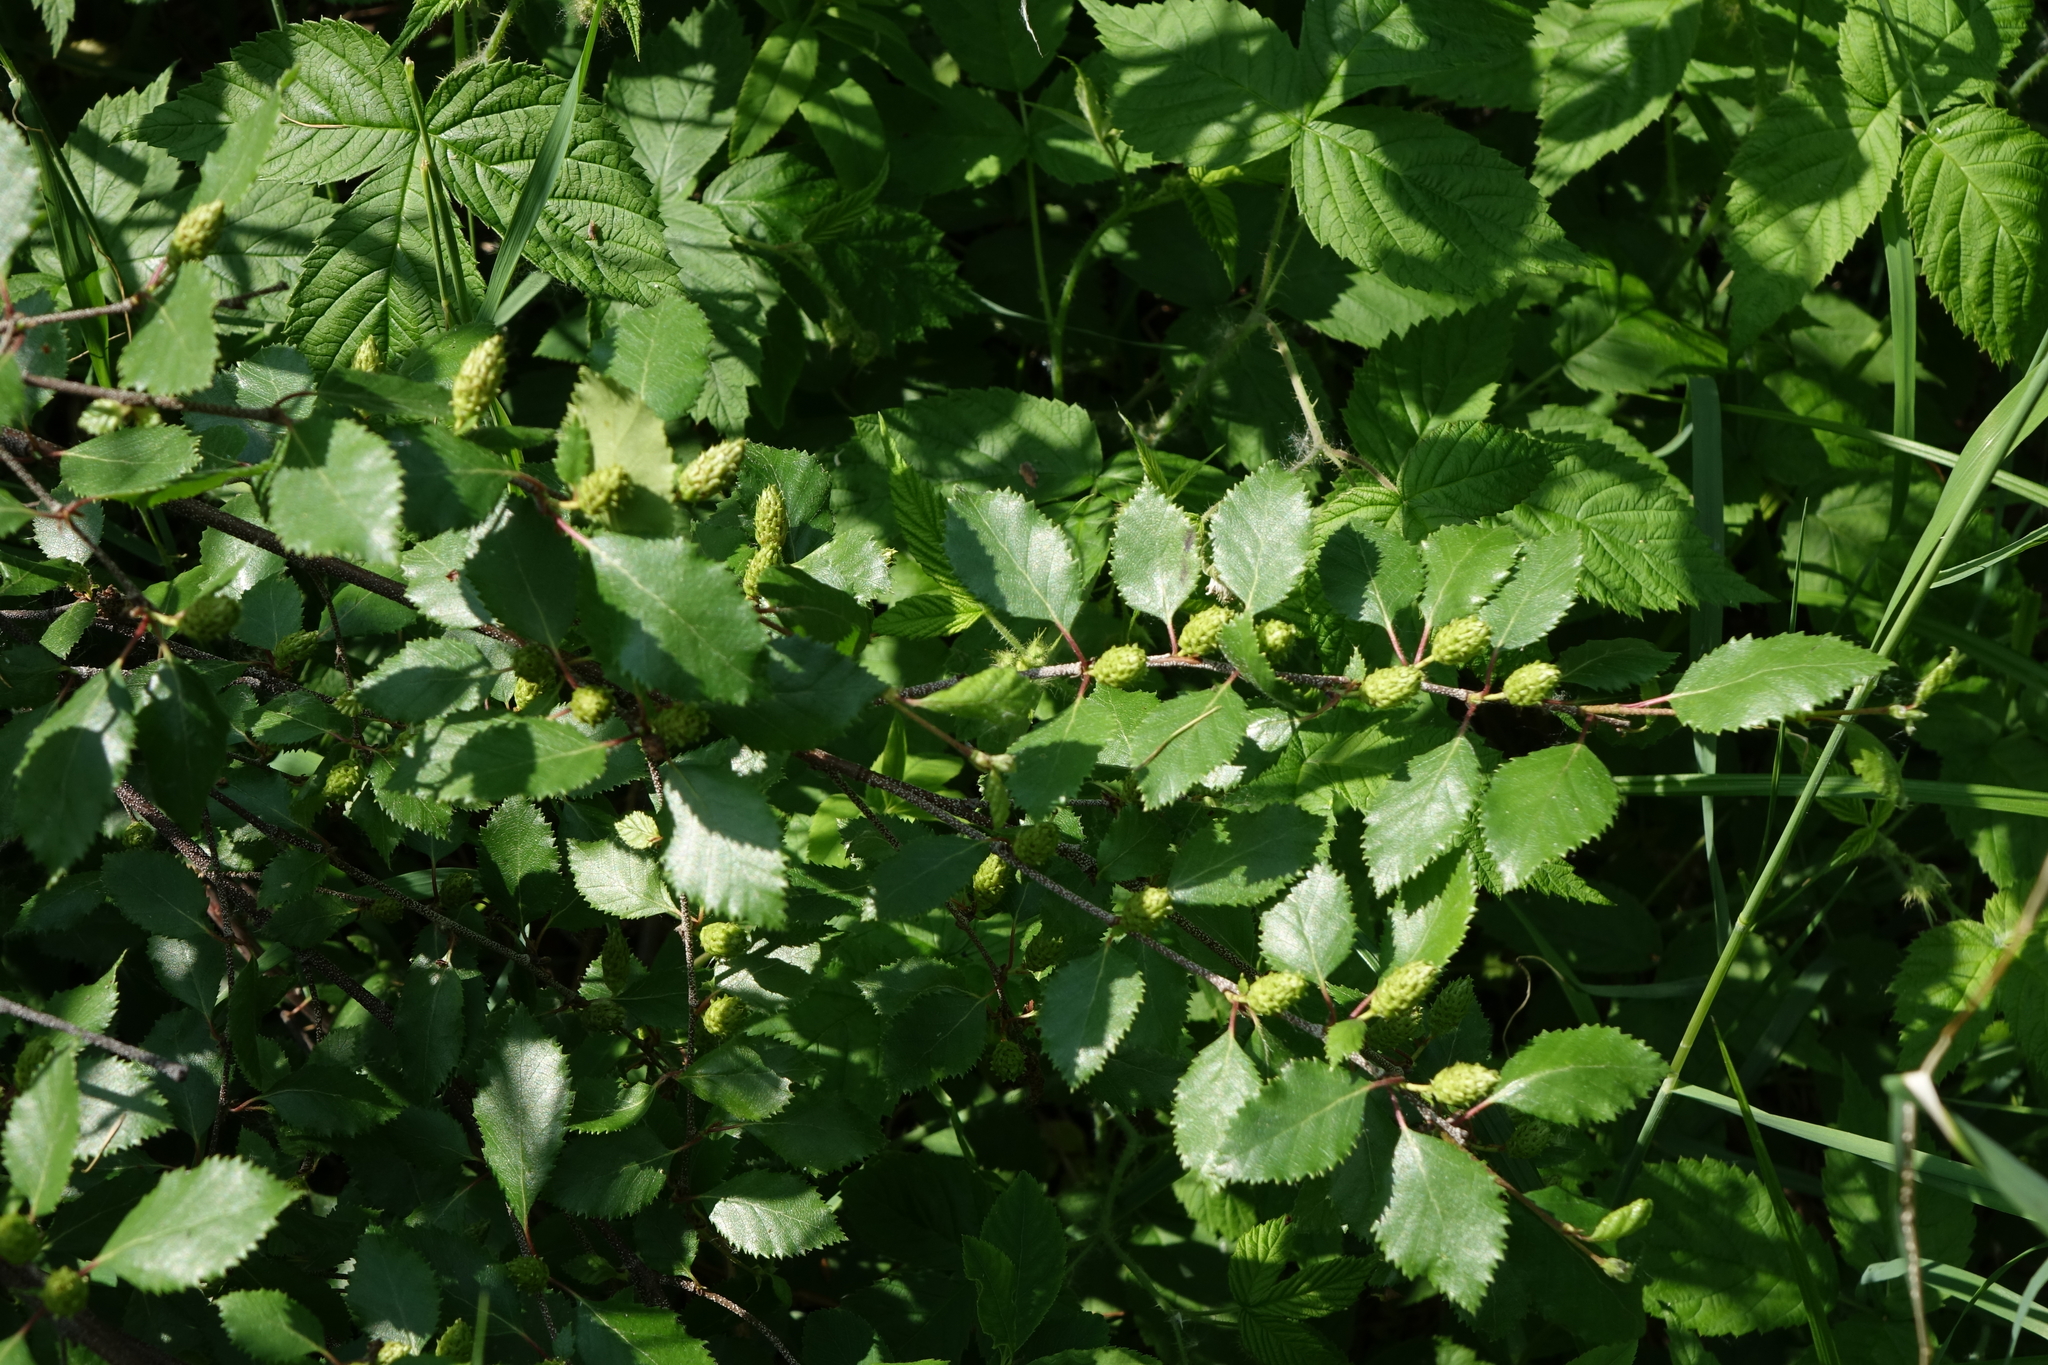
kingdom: Plantae
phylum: Tracheophyta
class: Magnoliopsida
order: Fagales
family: Betulaceae
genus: Betula
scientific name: Betula fruticosa
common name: Japanese bog birch
